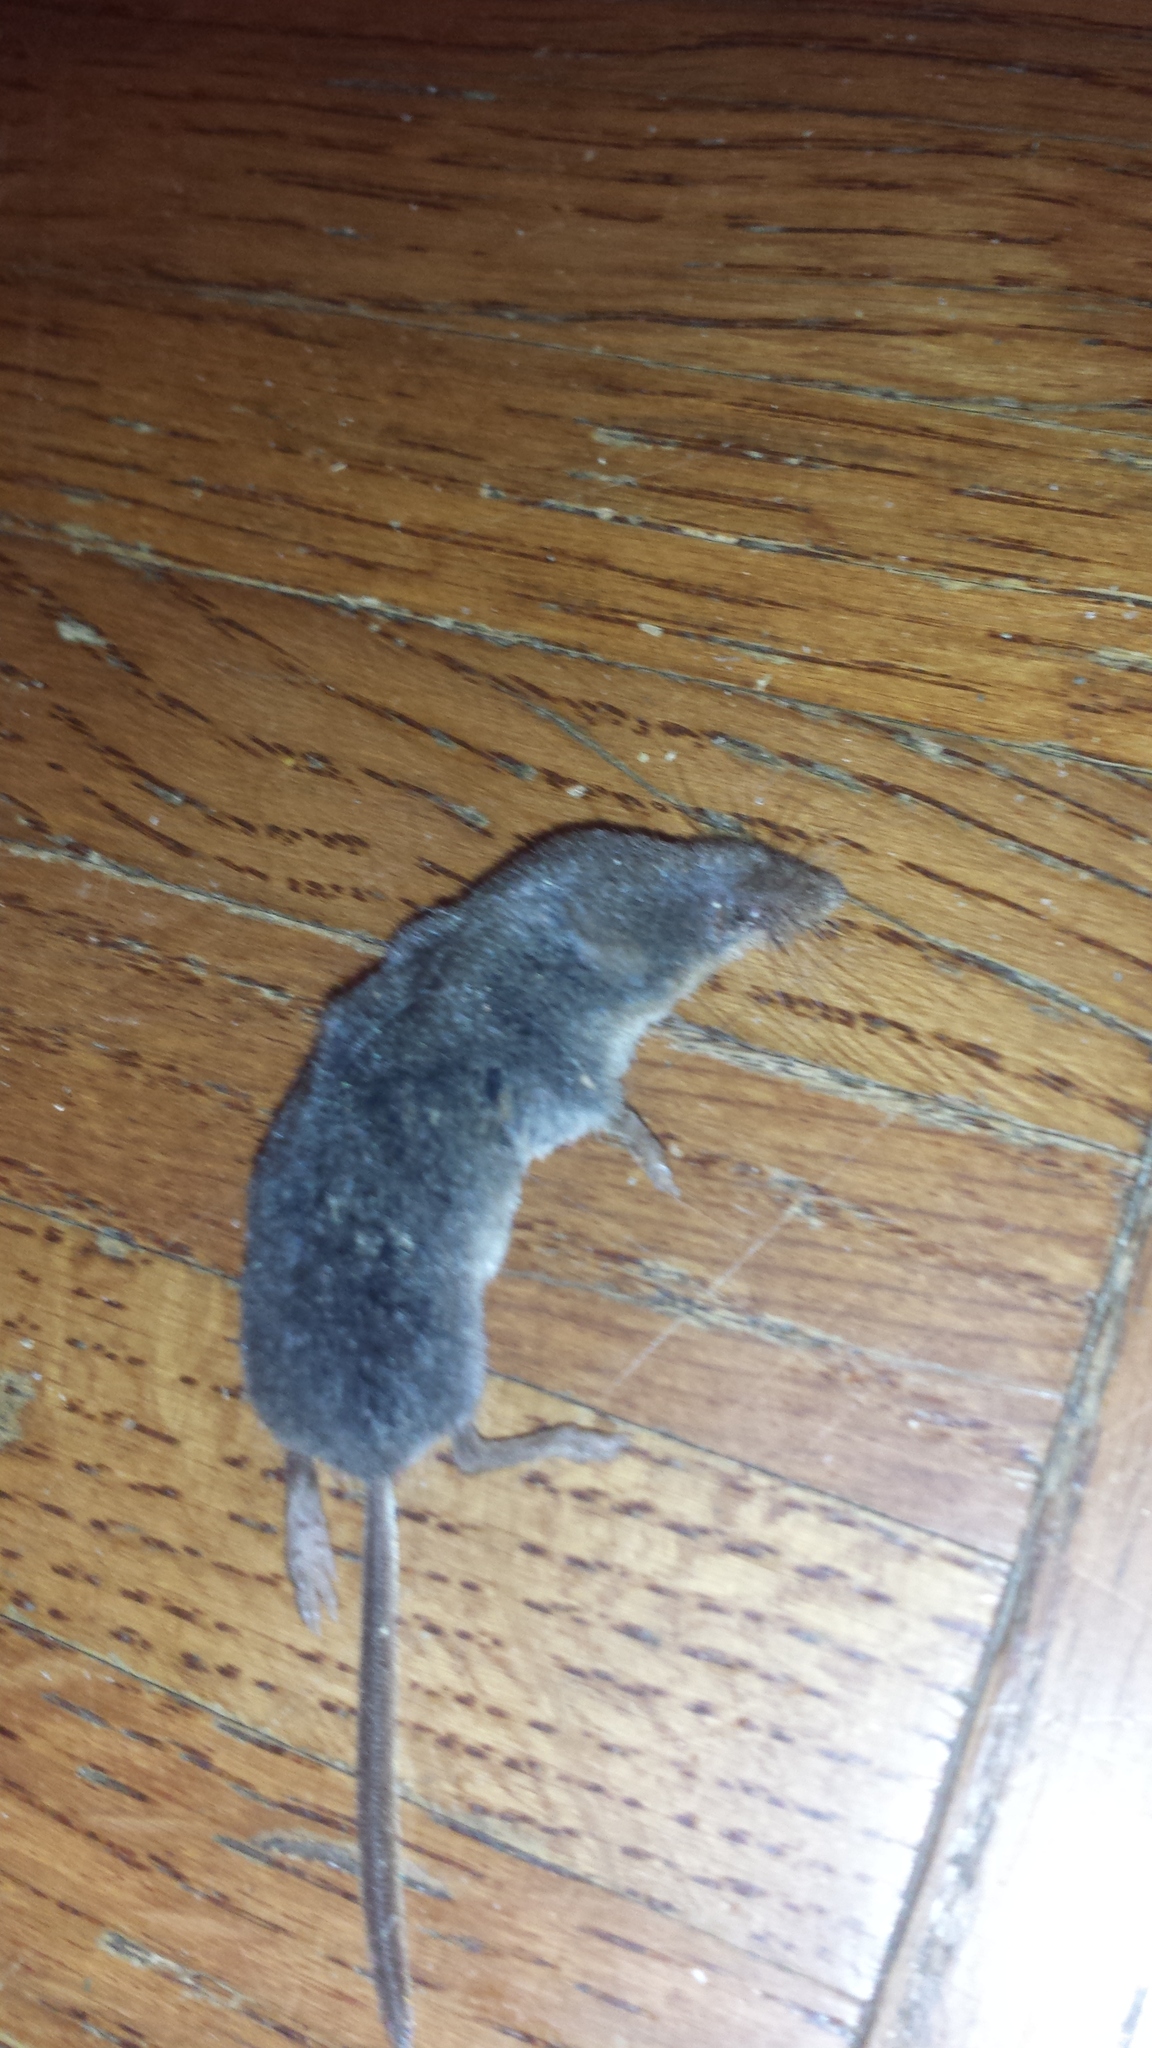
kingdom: Animalia
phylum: Chordata
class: Mammalia
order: Soricomorpha
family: Soricidae
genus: Sorex
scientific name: Sorex fumeus
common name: Smoky shrew
